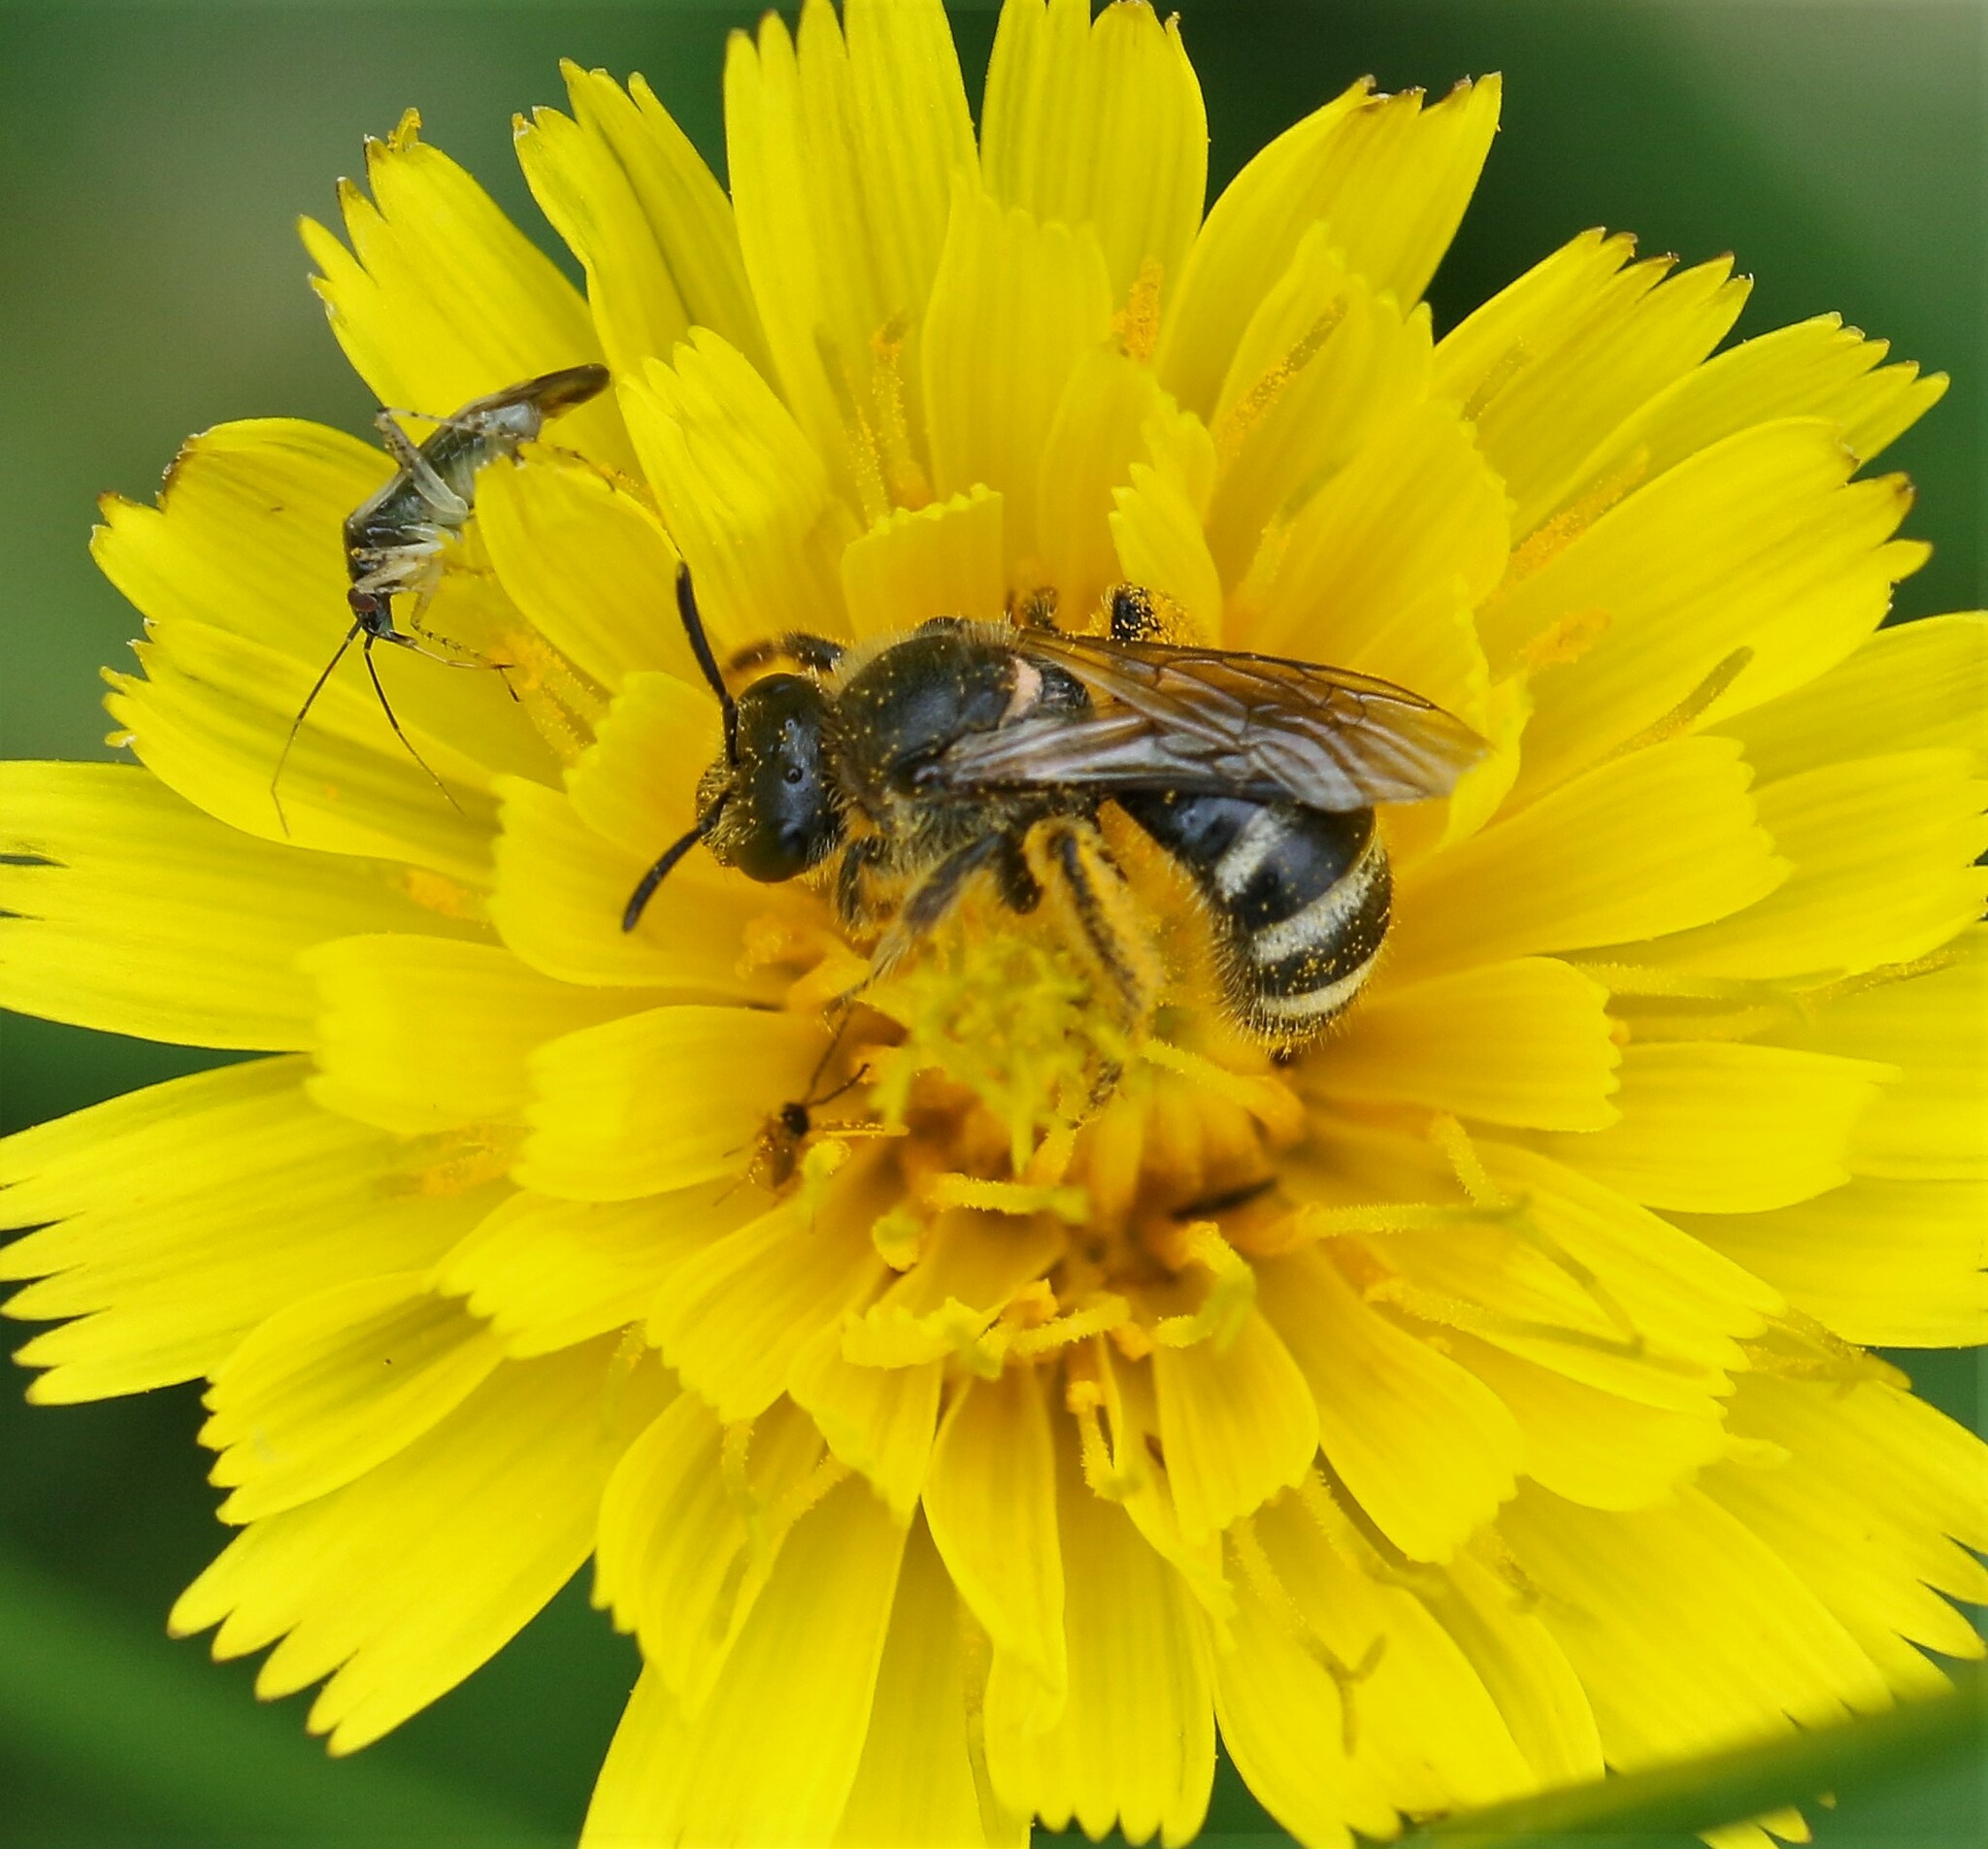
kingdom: Animalia
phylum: Arthropoda
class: Insecta
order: Hymenoptera
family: Halictidae
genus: Lasioglossum
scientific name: Lasioglossum
